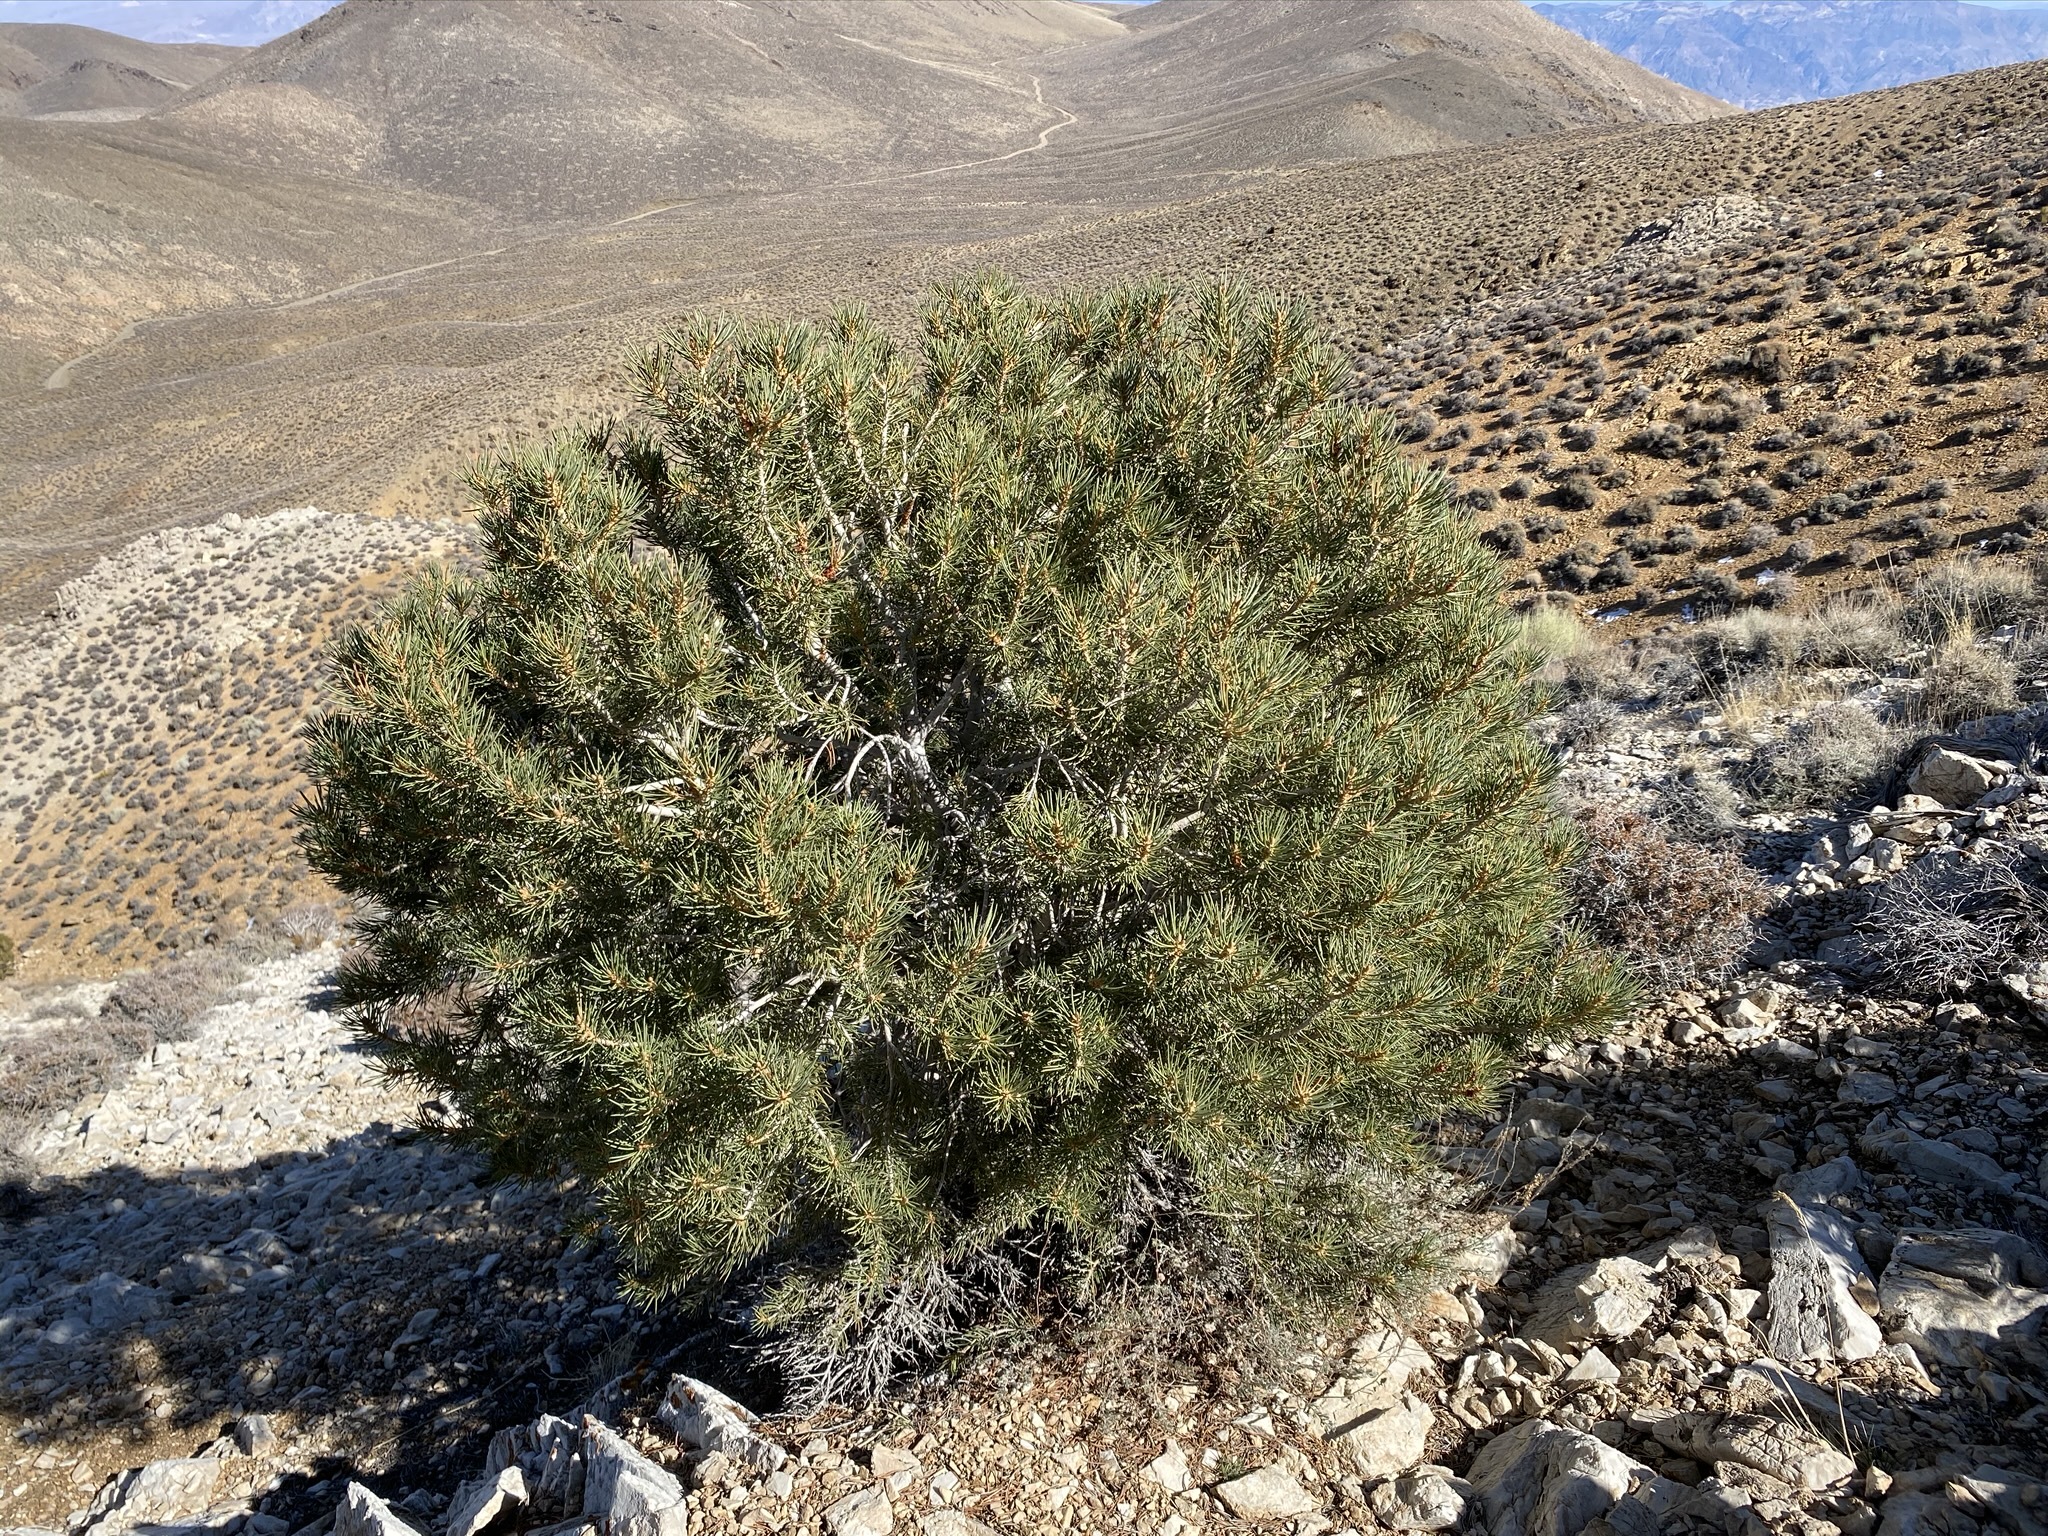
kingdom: Plantae
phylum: Tracheophyta
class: Pinopsida
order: Pinales
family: Pinaceae
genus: Pinus
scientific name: Pinus monophylla
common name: One-leaved nut pine
